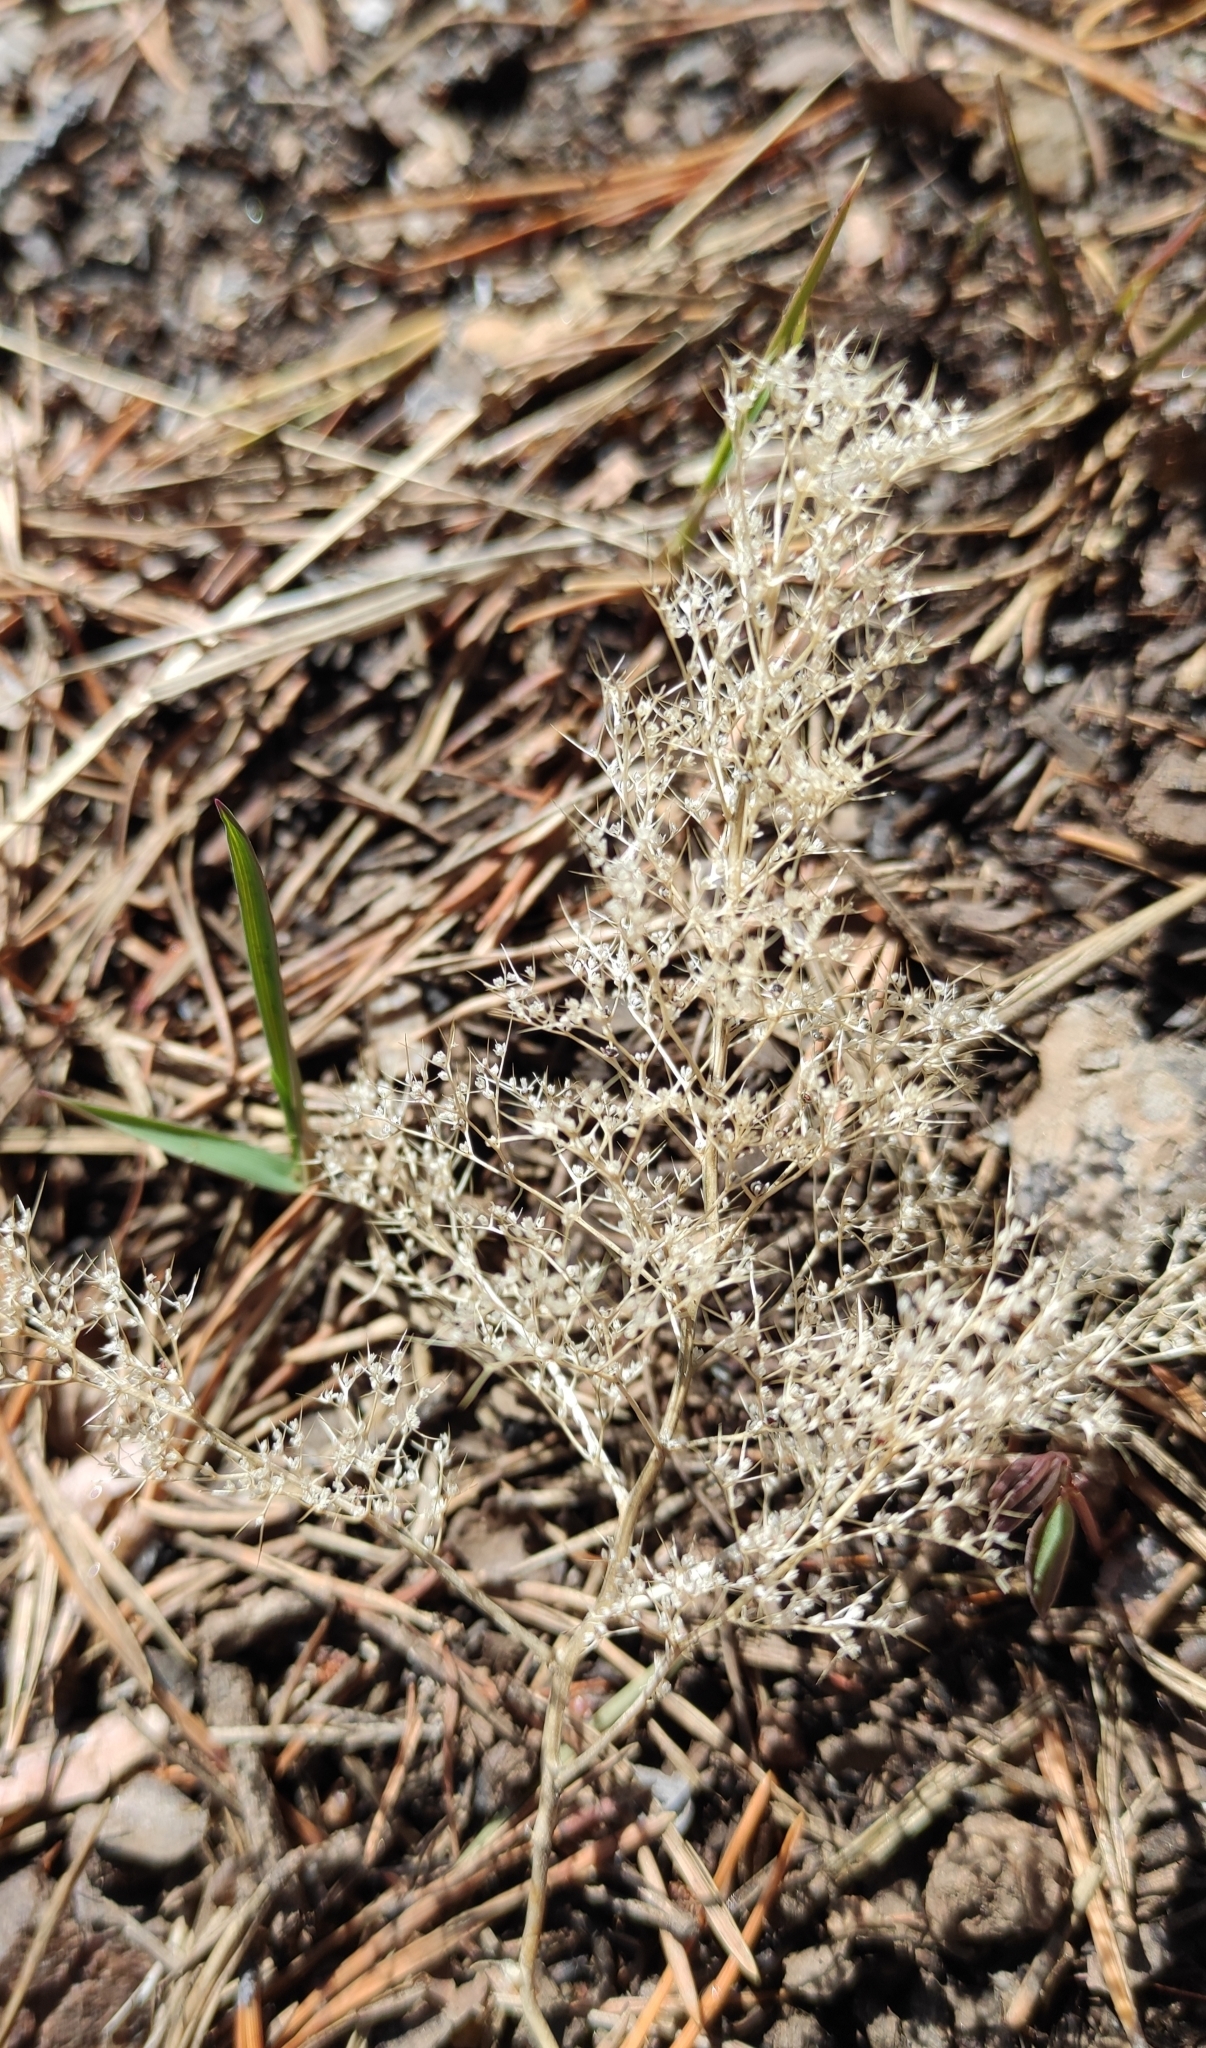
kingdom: Plantae
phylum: Tracheophyta
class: Magnoliopsida
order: Caryophyllales
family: Amaranthaceae
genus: Teloxys
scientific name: Teloxys aristata
